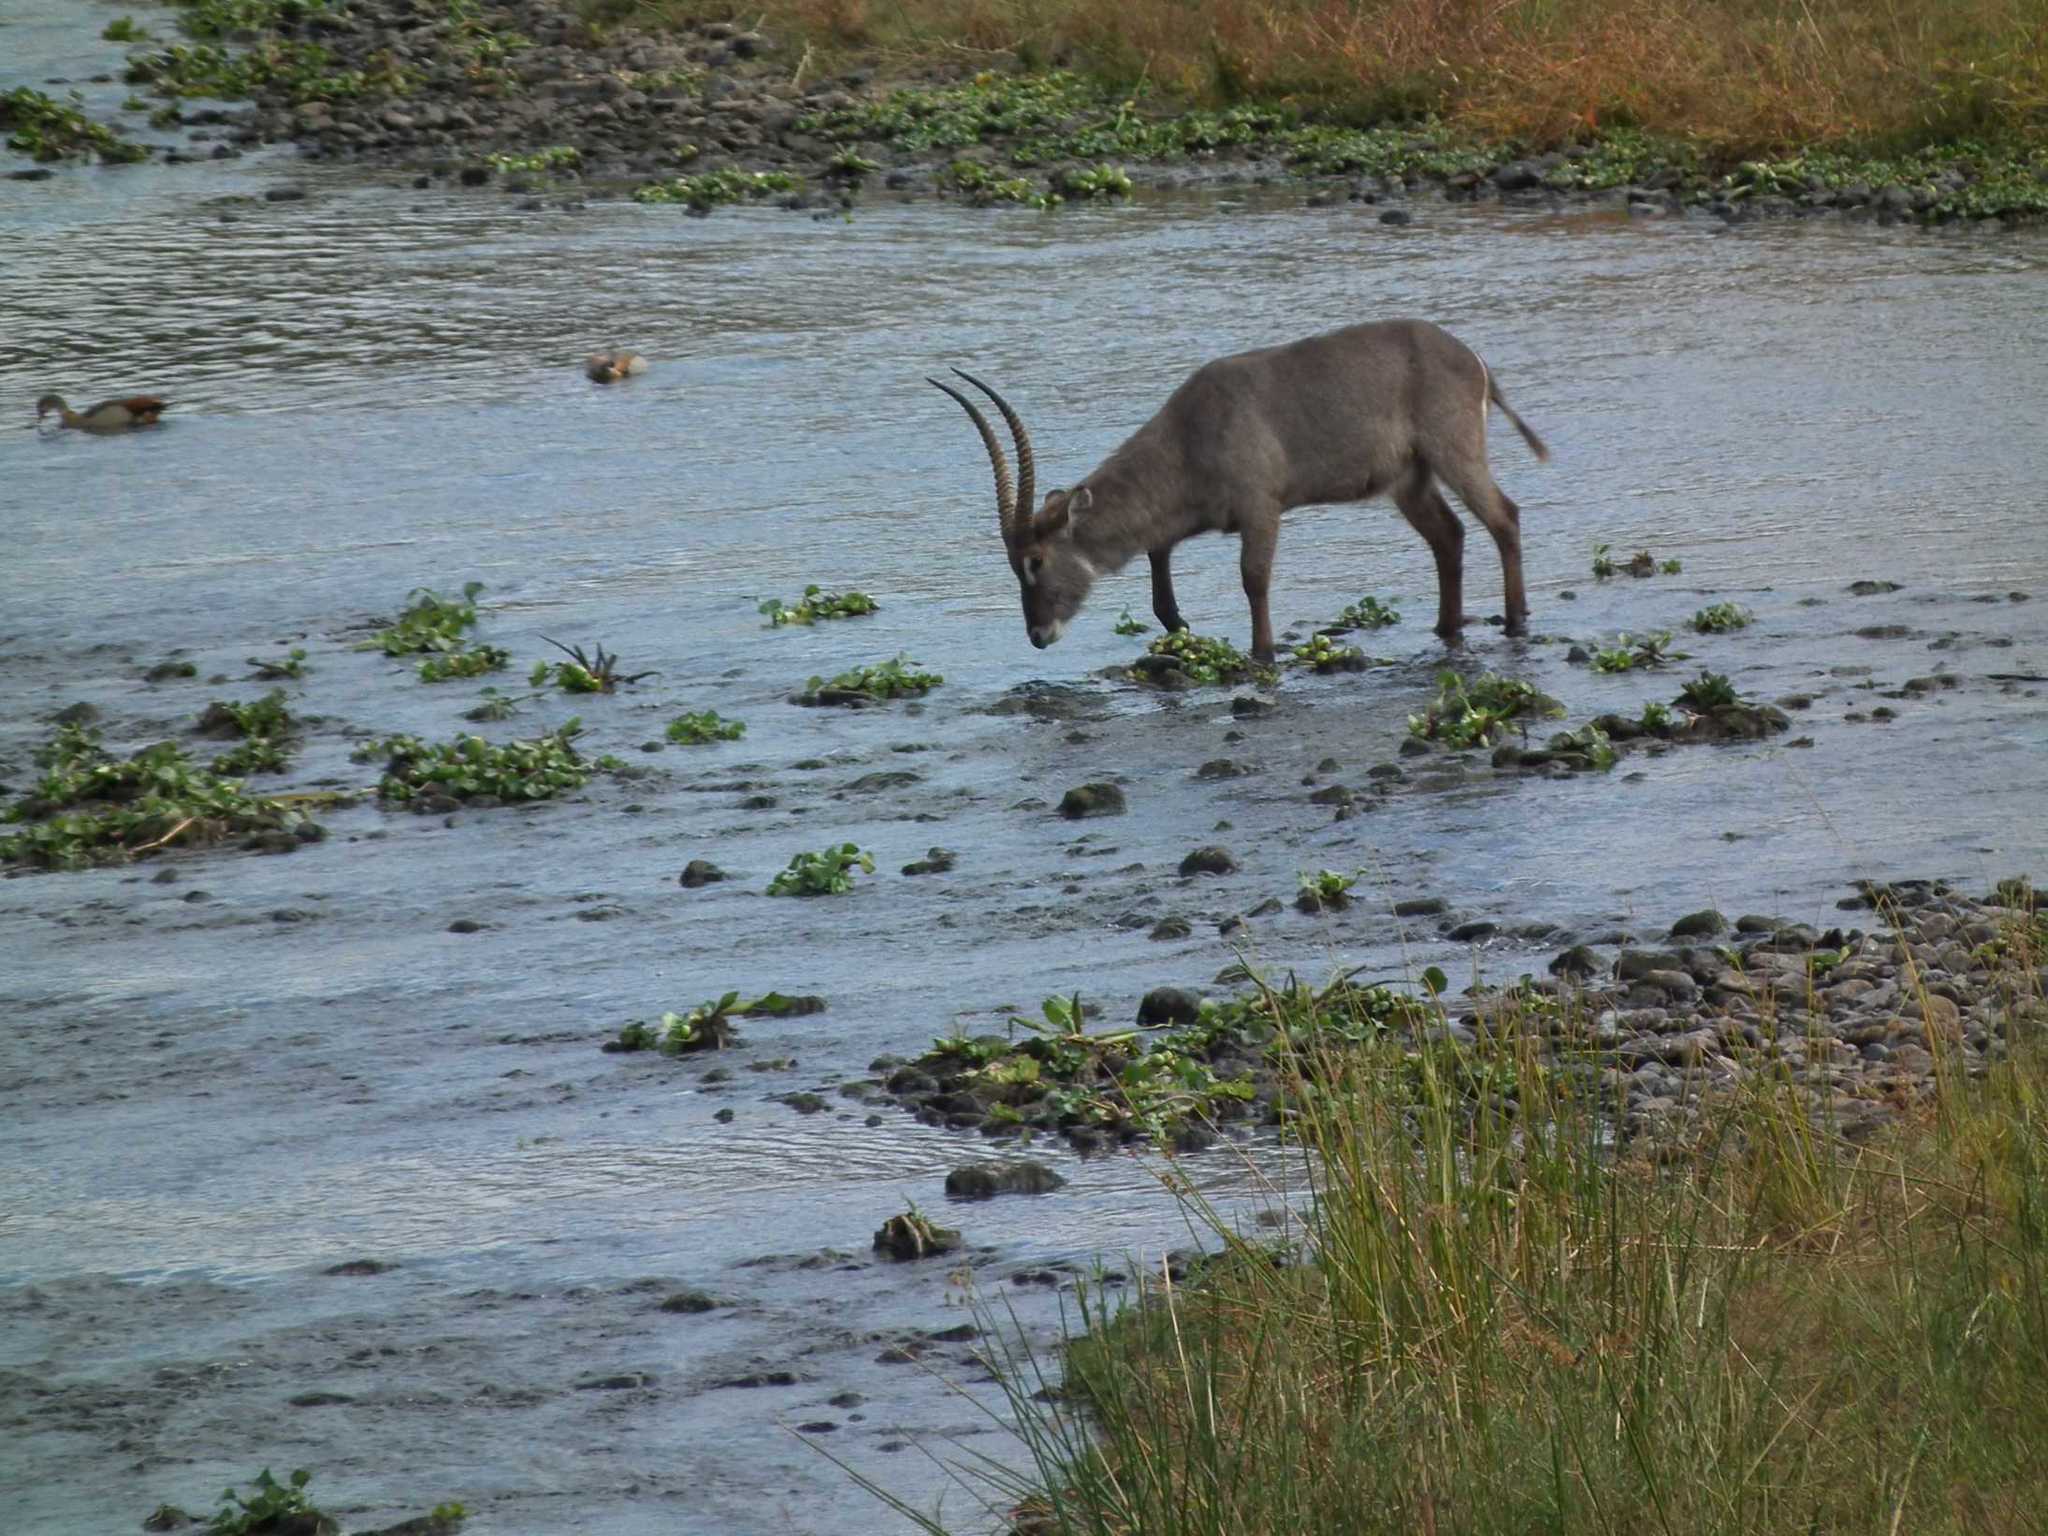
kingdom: Animalia
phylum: Chordata
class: Mammalia
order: Artiodactyla
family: Bovidae
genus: Kobus
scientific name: Kobus ellipsiprymnus
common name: Waterbuck
